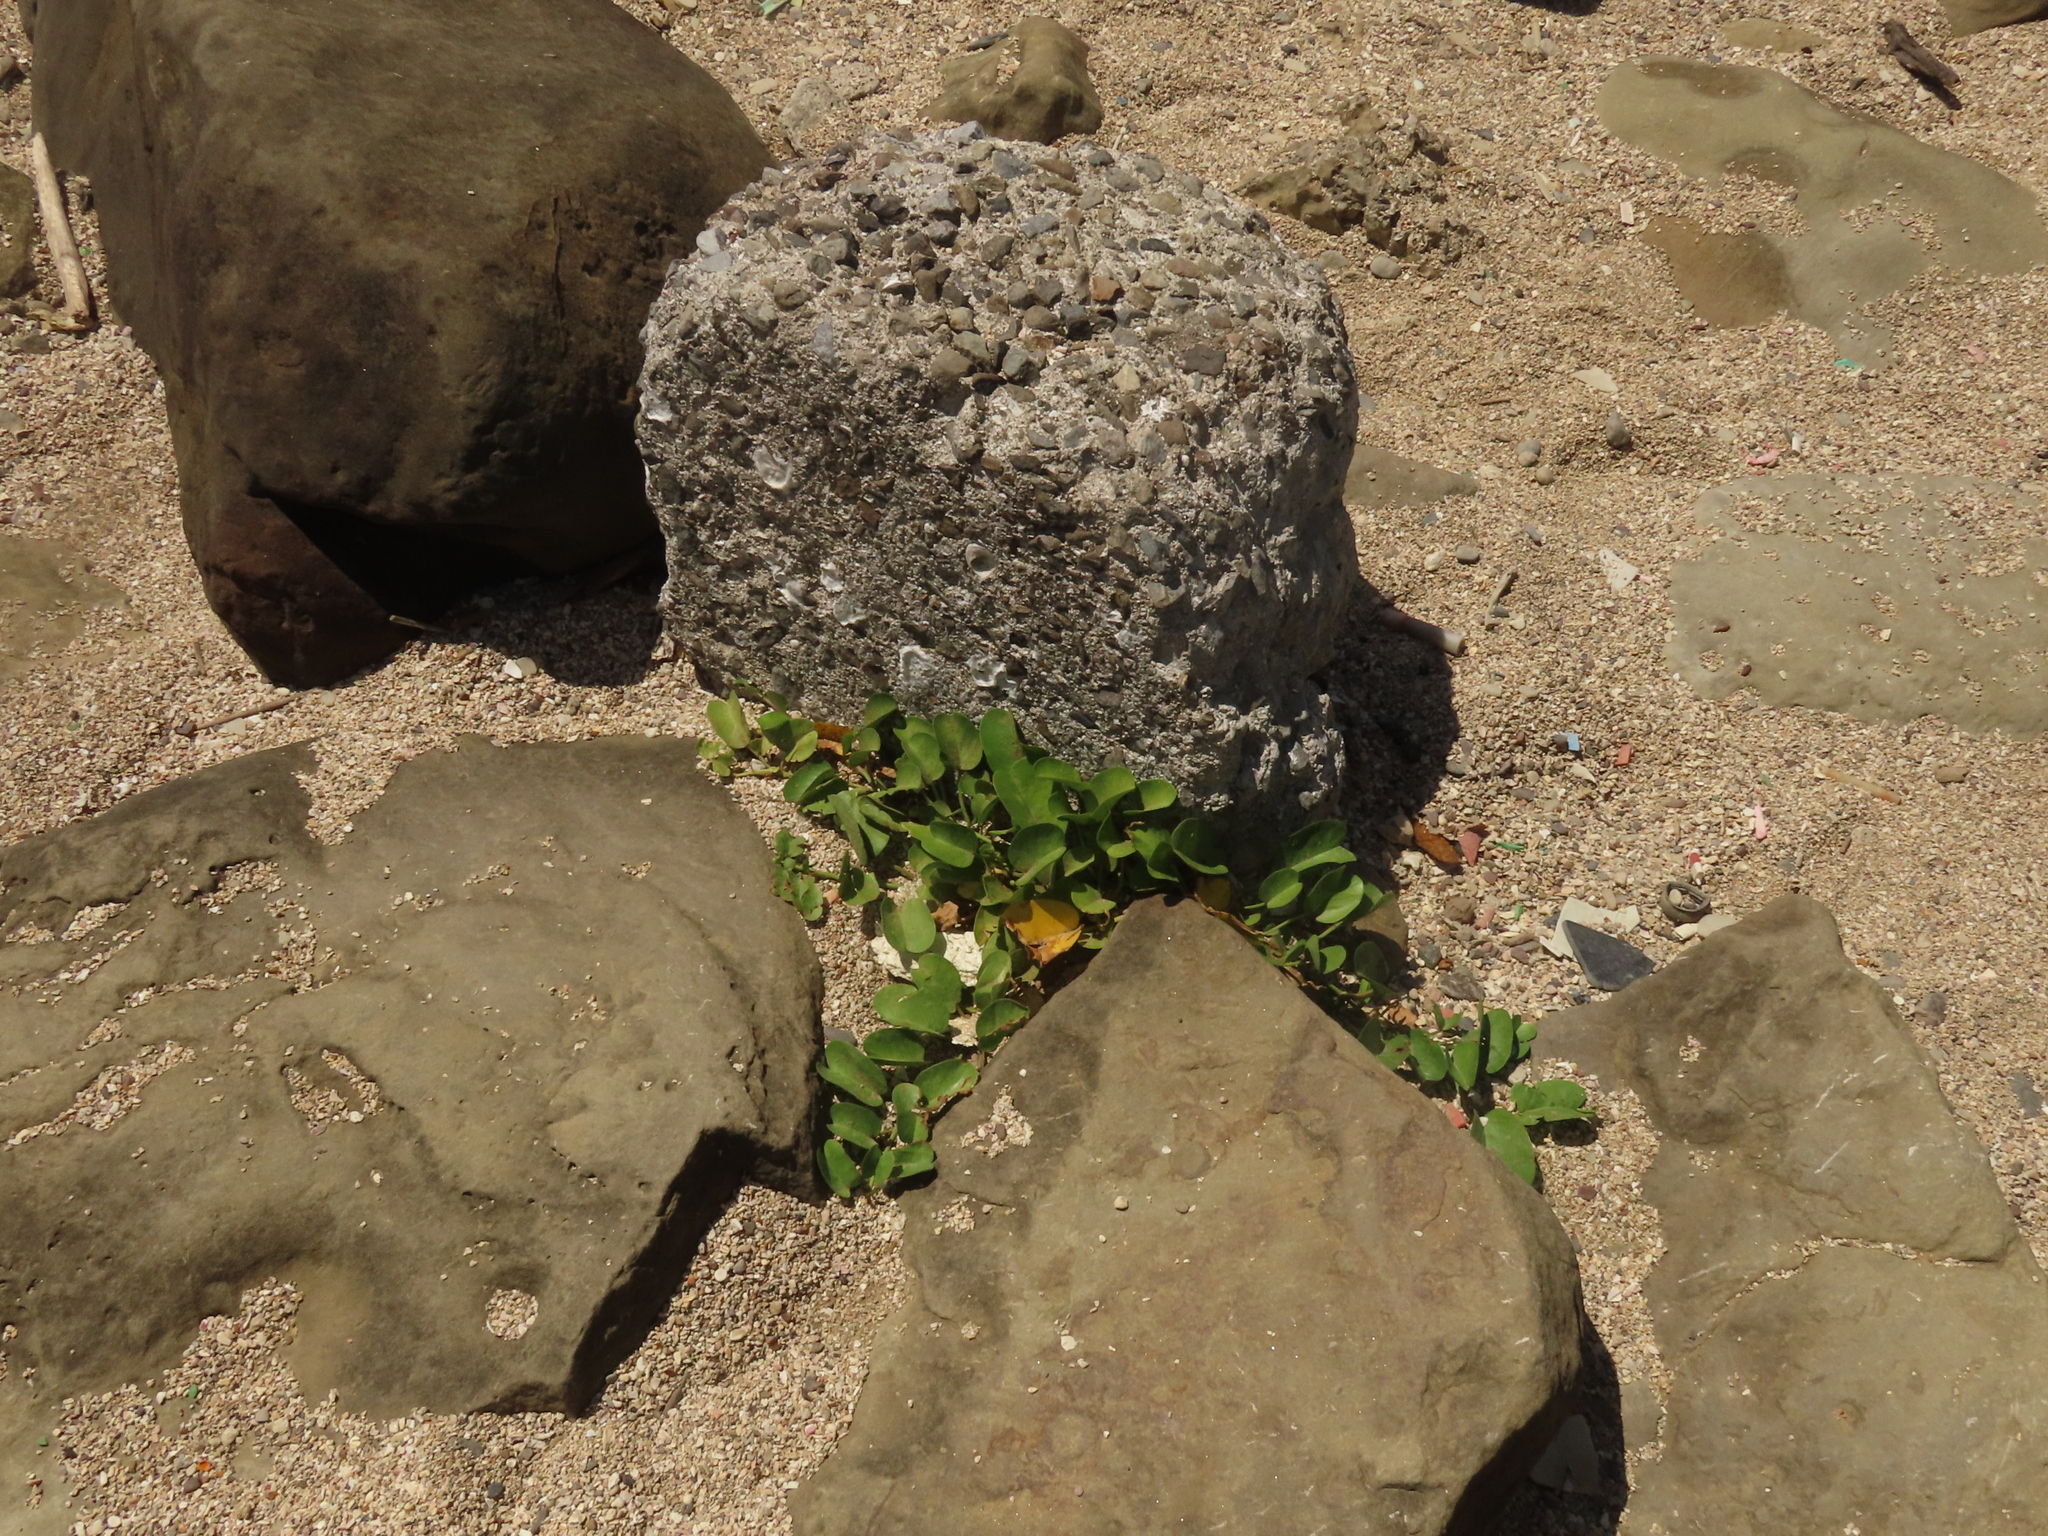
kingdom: Plantae
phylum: Tracheophyta
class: Magnoliopsida
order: Solanales
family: Convolvulaceae
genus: Ipomoea
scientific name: Ipomoea pes-caprae
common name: Beach morning glory
